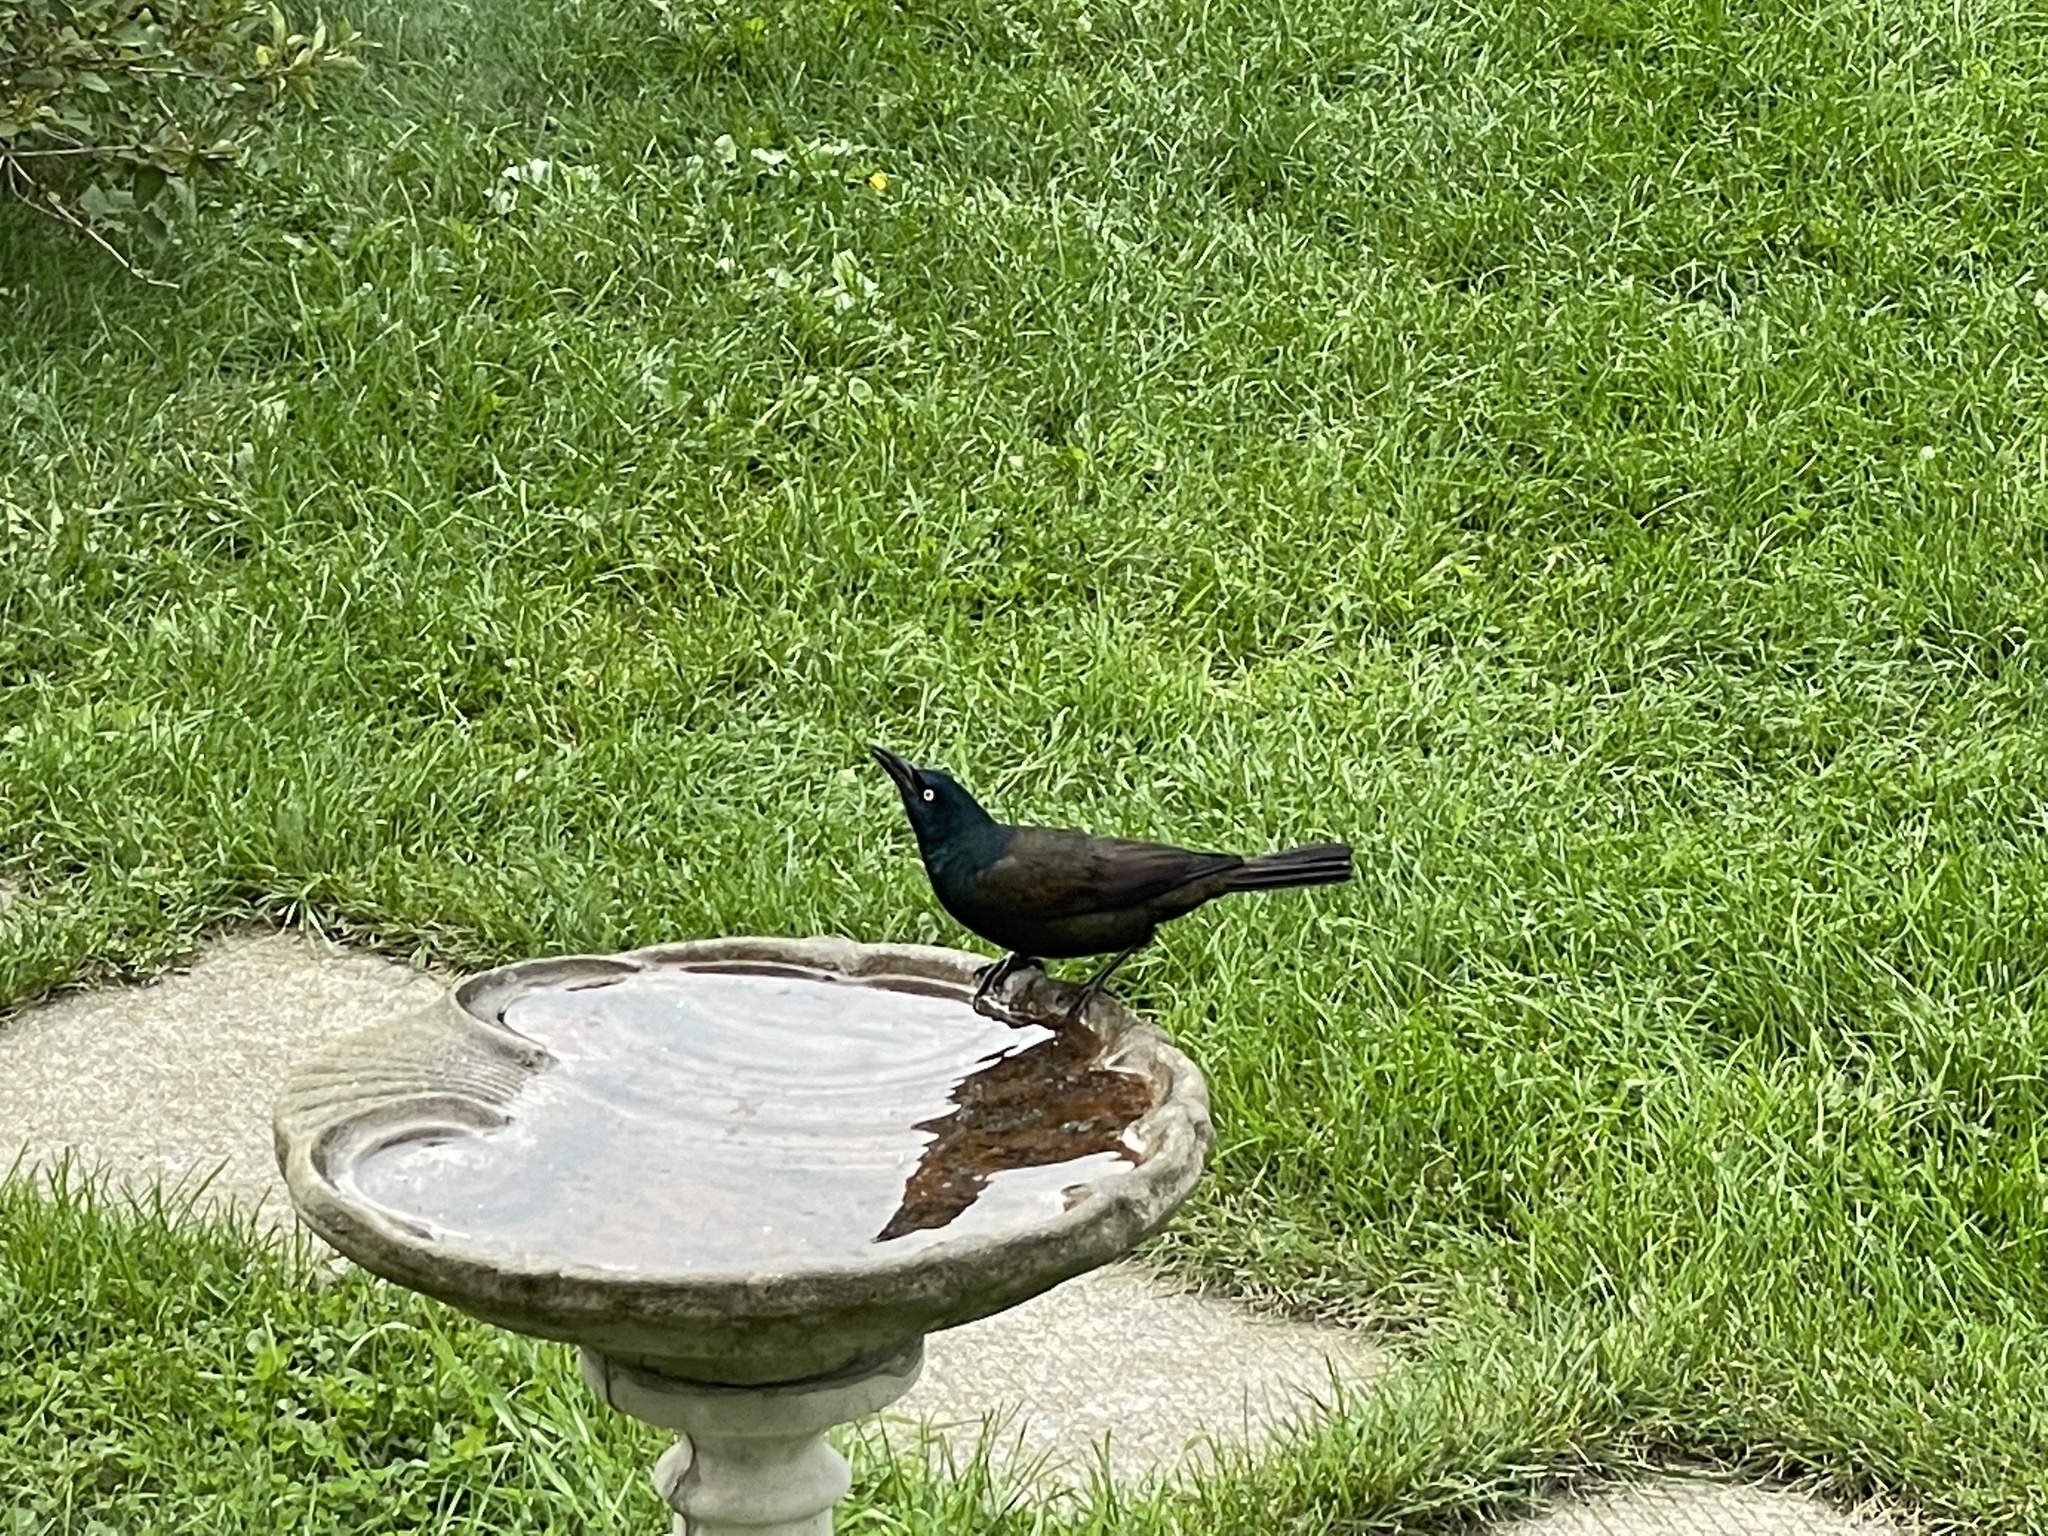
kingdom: Animalia
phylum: Chordata
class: Aves
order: Passeriformes
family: Icteridae
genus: Quiscalus
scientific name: Quiscalus quiscula
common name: Common grackle
